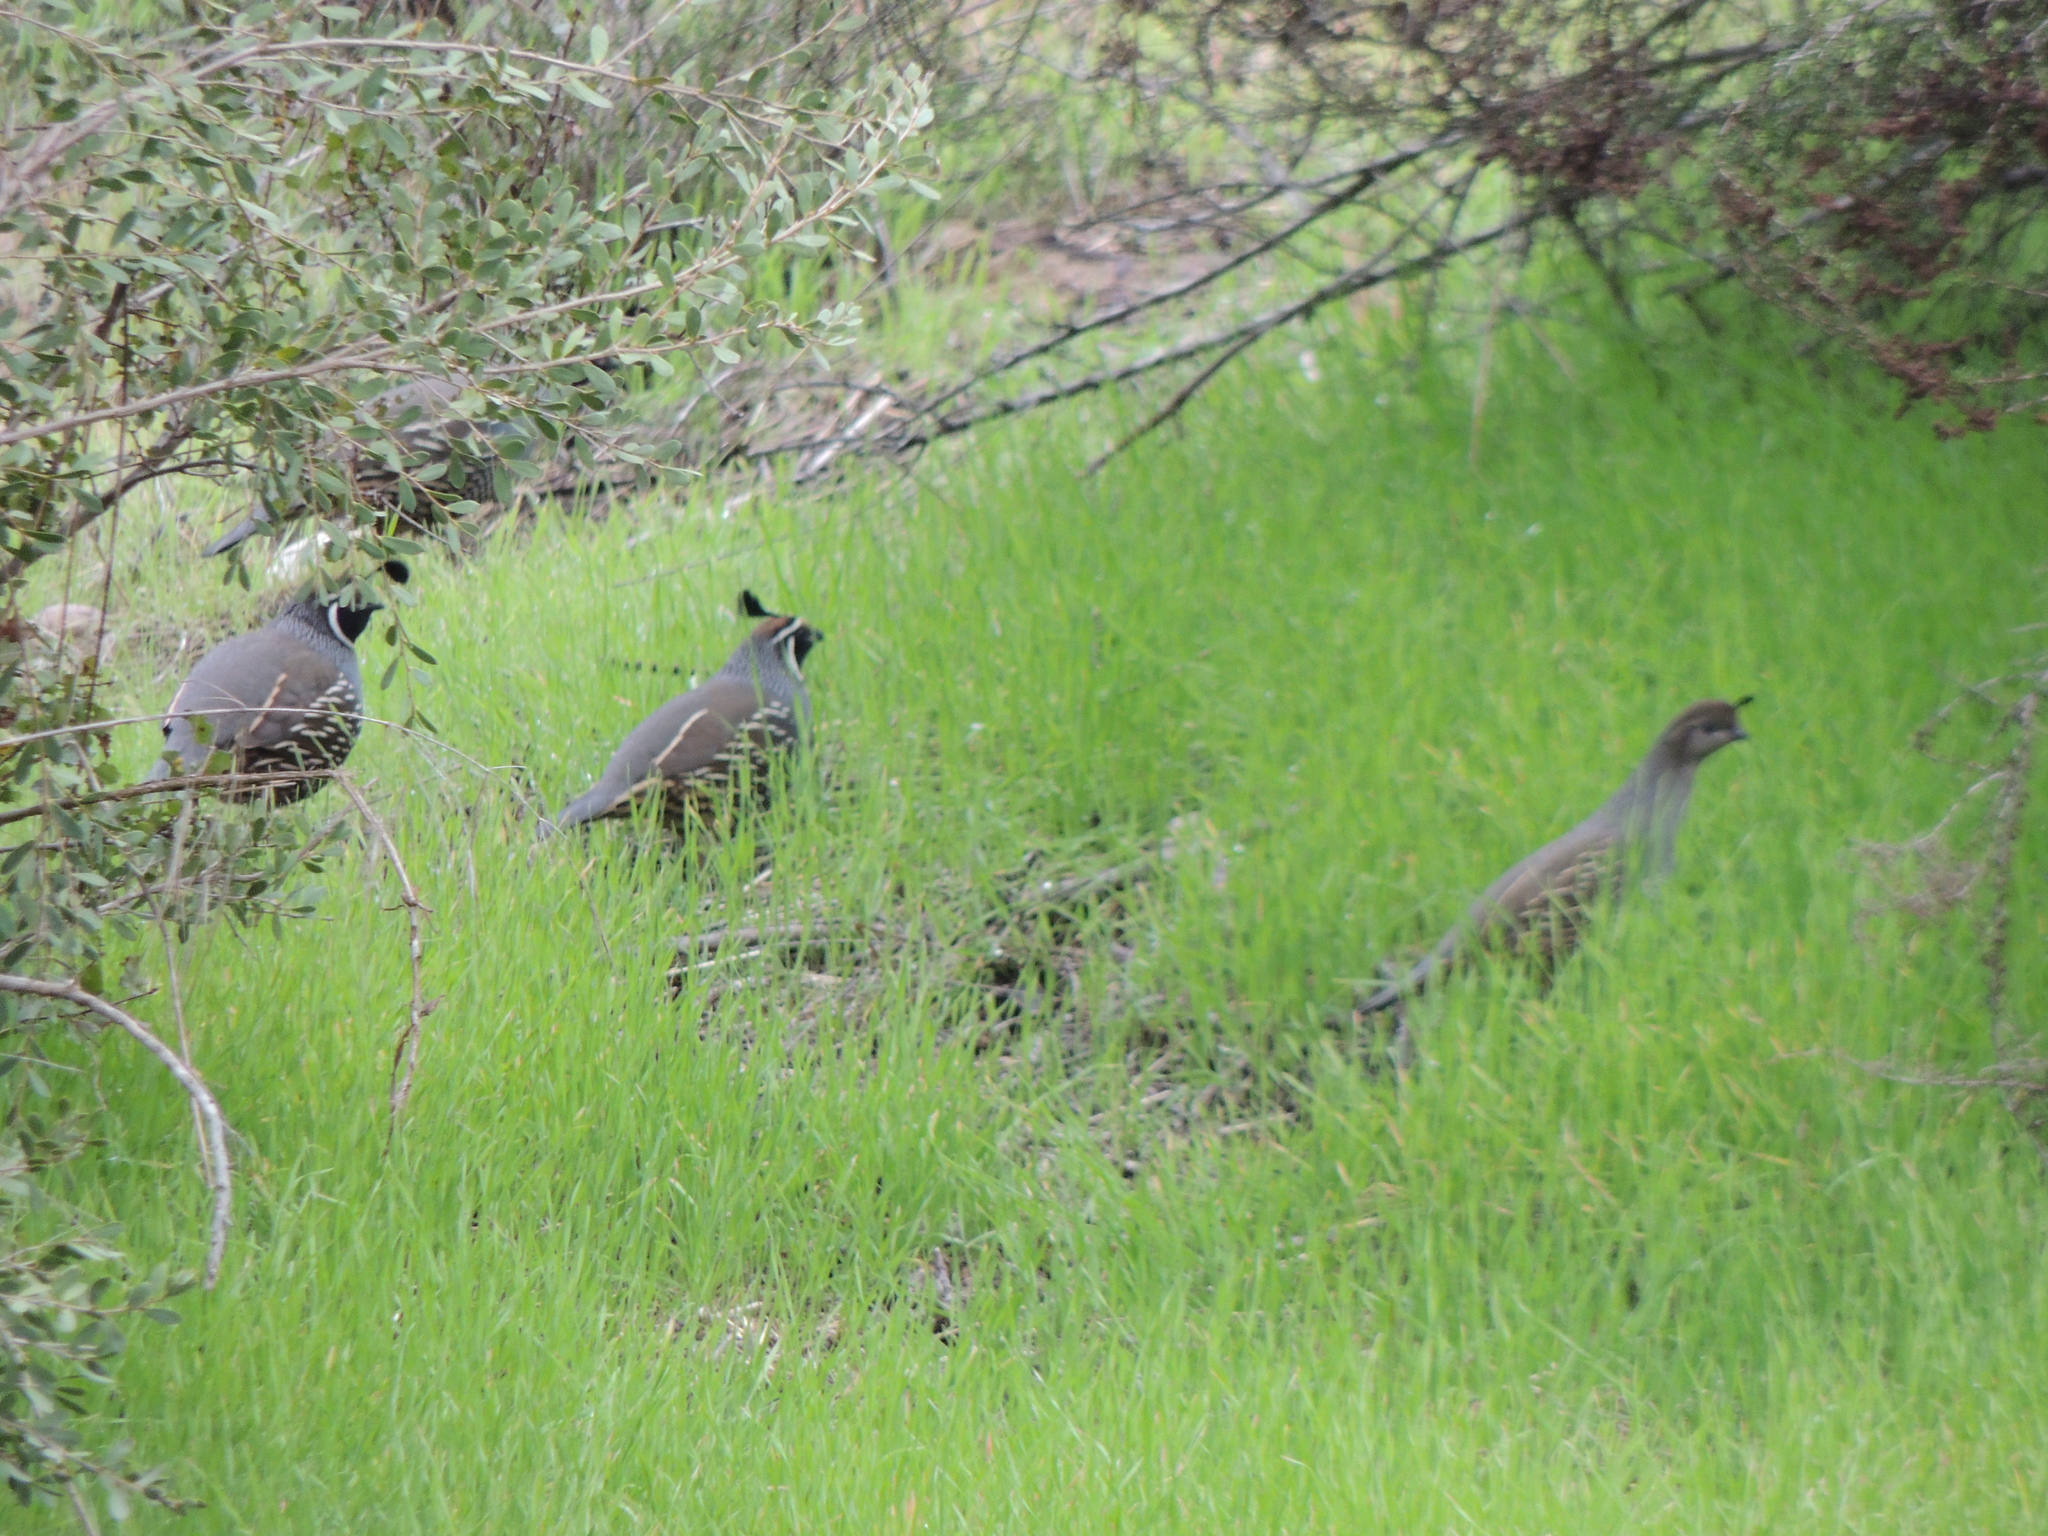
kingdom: Animalia
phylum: Chordata
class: Aves
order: Galliformes
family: Odontophoridae
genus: Callipepla
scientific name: Callipepla californica
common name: California quail
